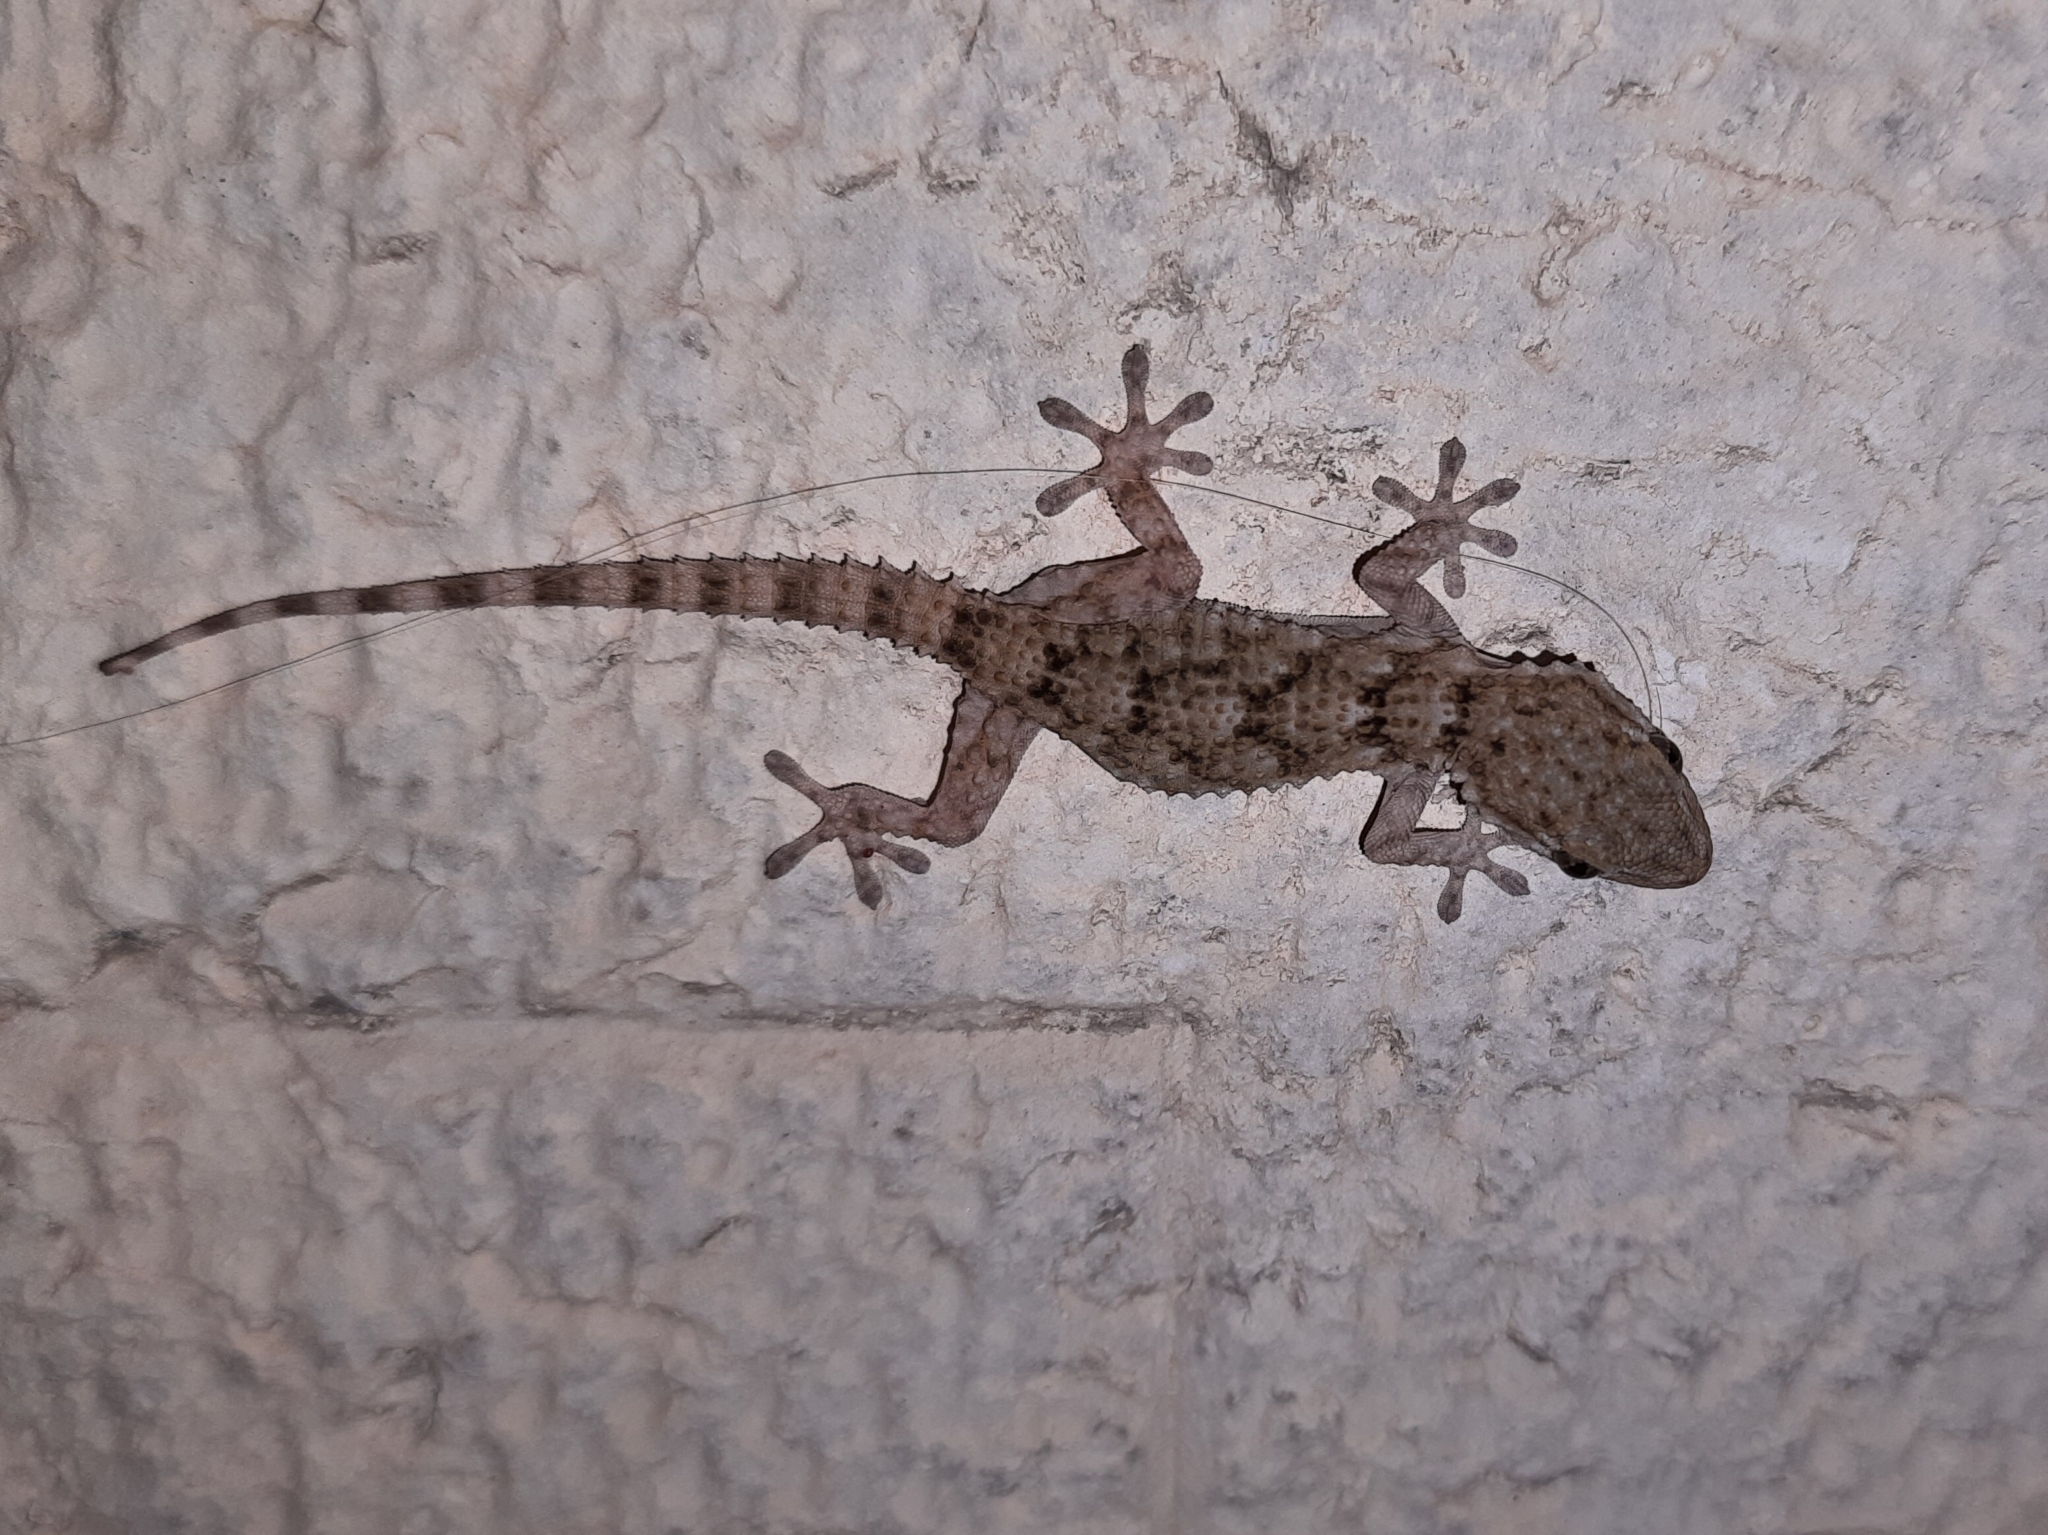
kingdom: Animalia
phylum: Chordata
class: Squamata
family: Phyllodactylidae
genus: Tarentola
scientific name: Tarentola mauritanica
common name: Moorish gecko
